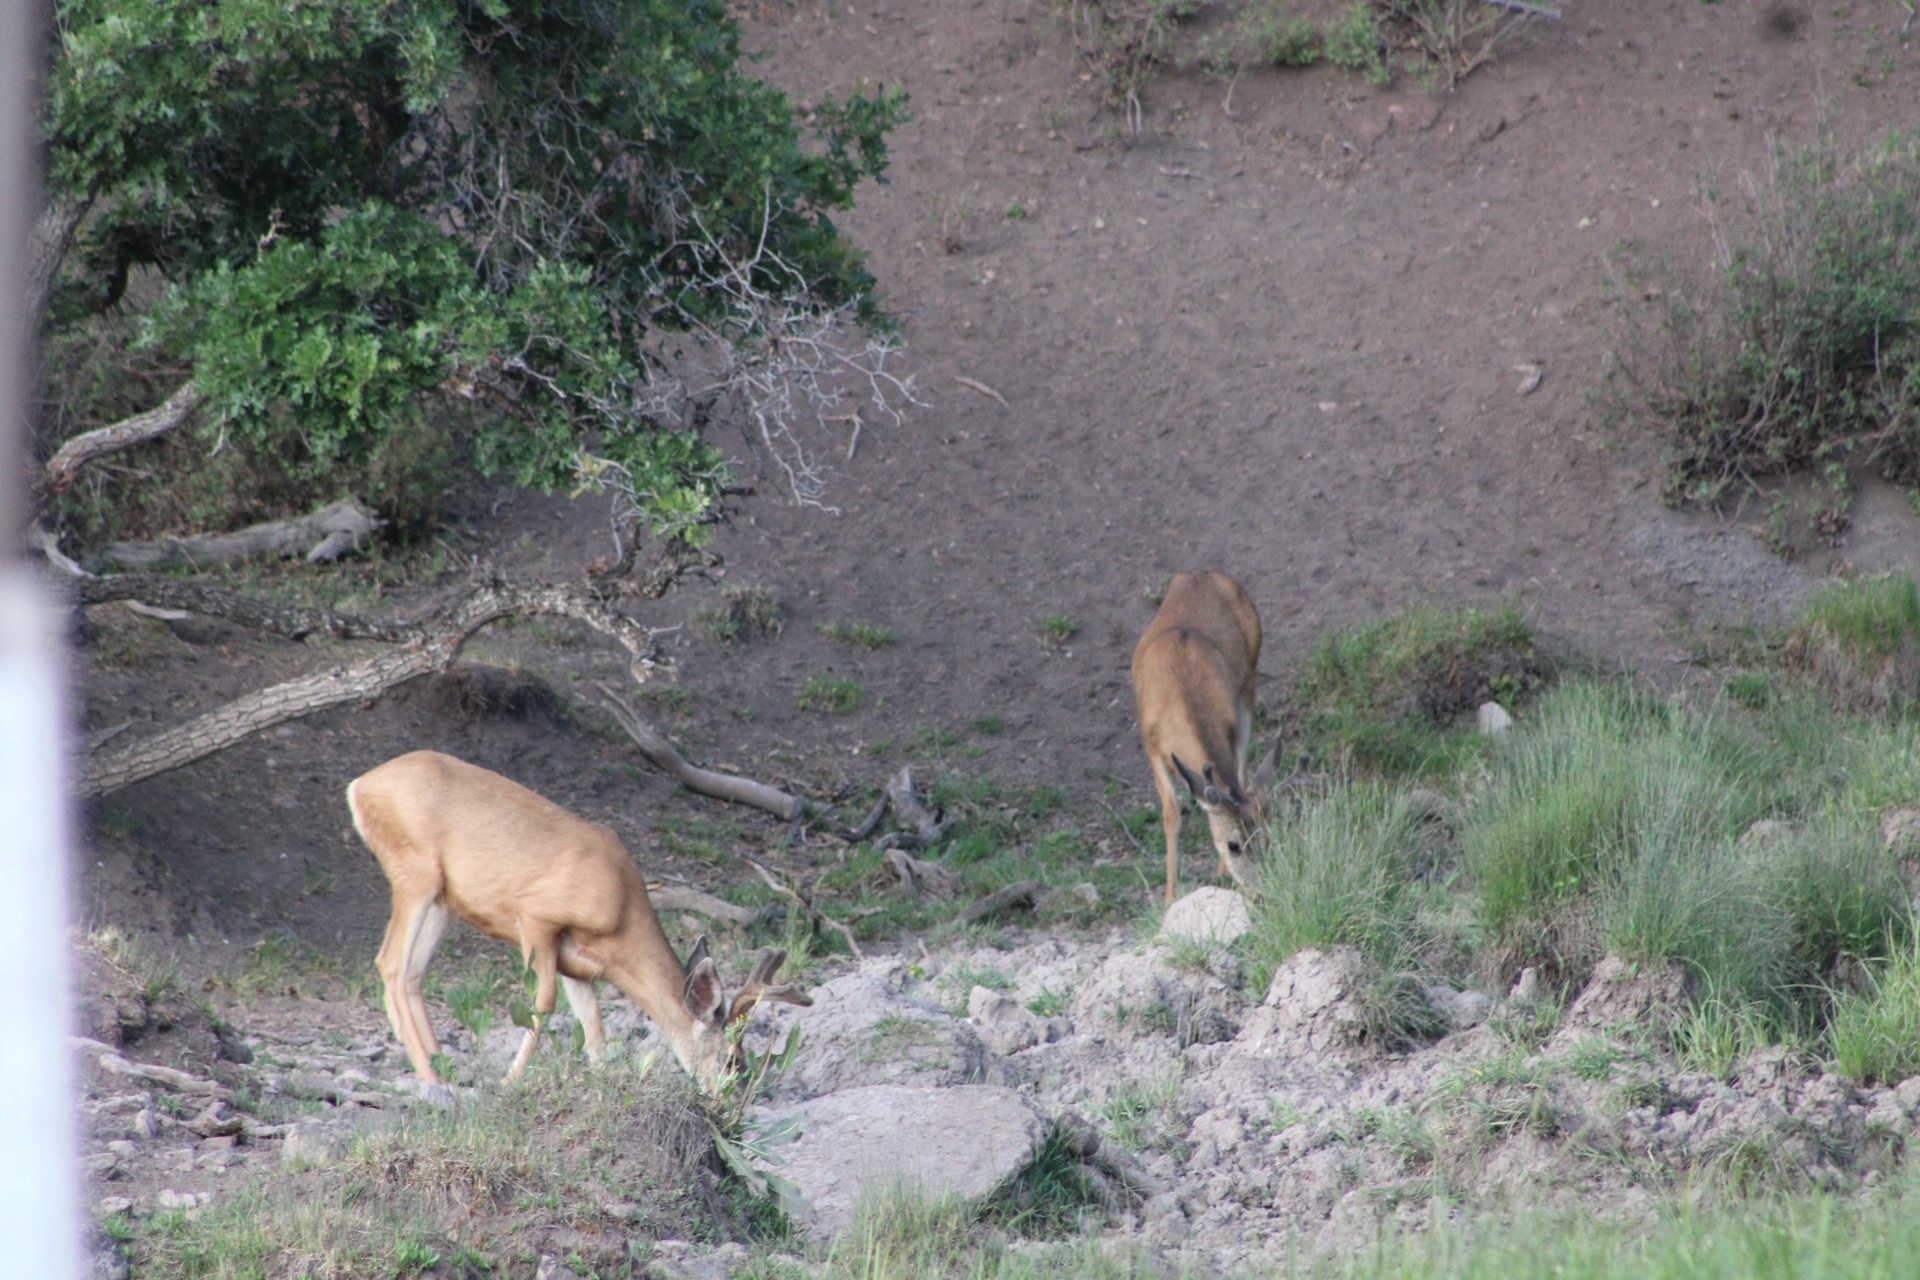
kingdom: Animalia
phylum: Chordata
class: Mammalia
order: Artiodactyla
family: Cervidae
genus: Odocoileus
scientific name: Odocoileus hemionus
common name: Mule deer
